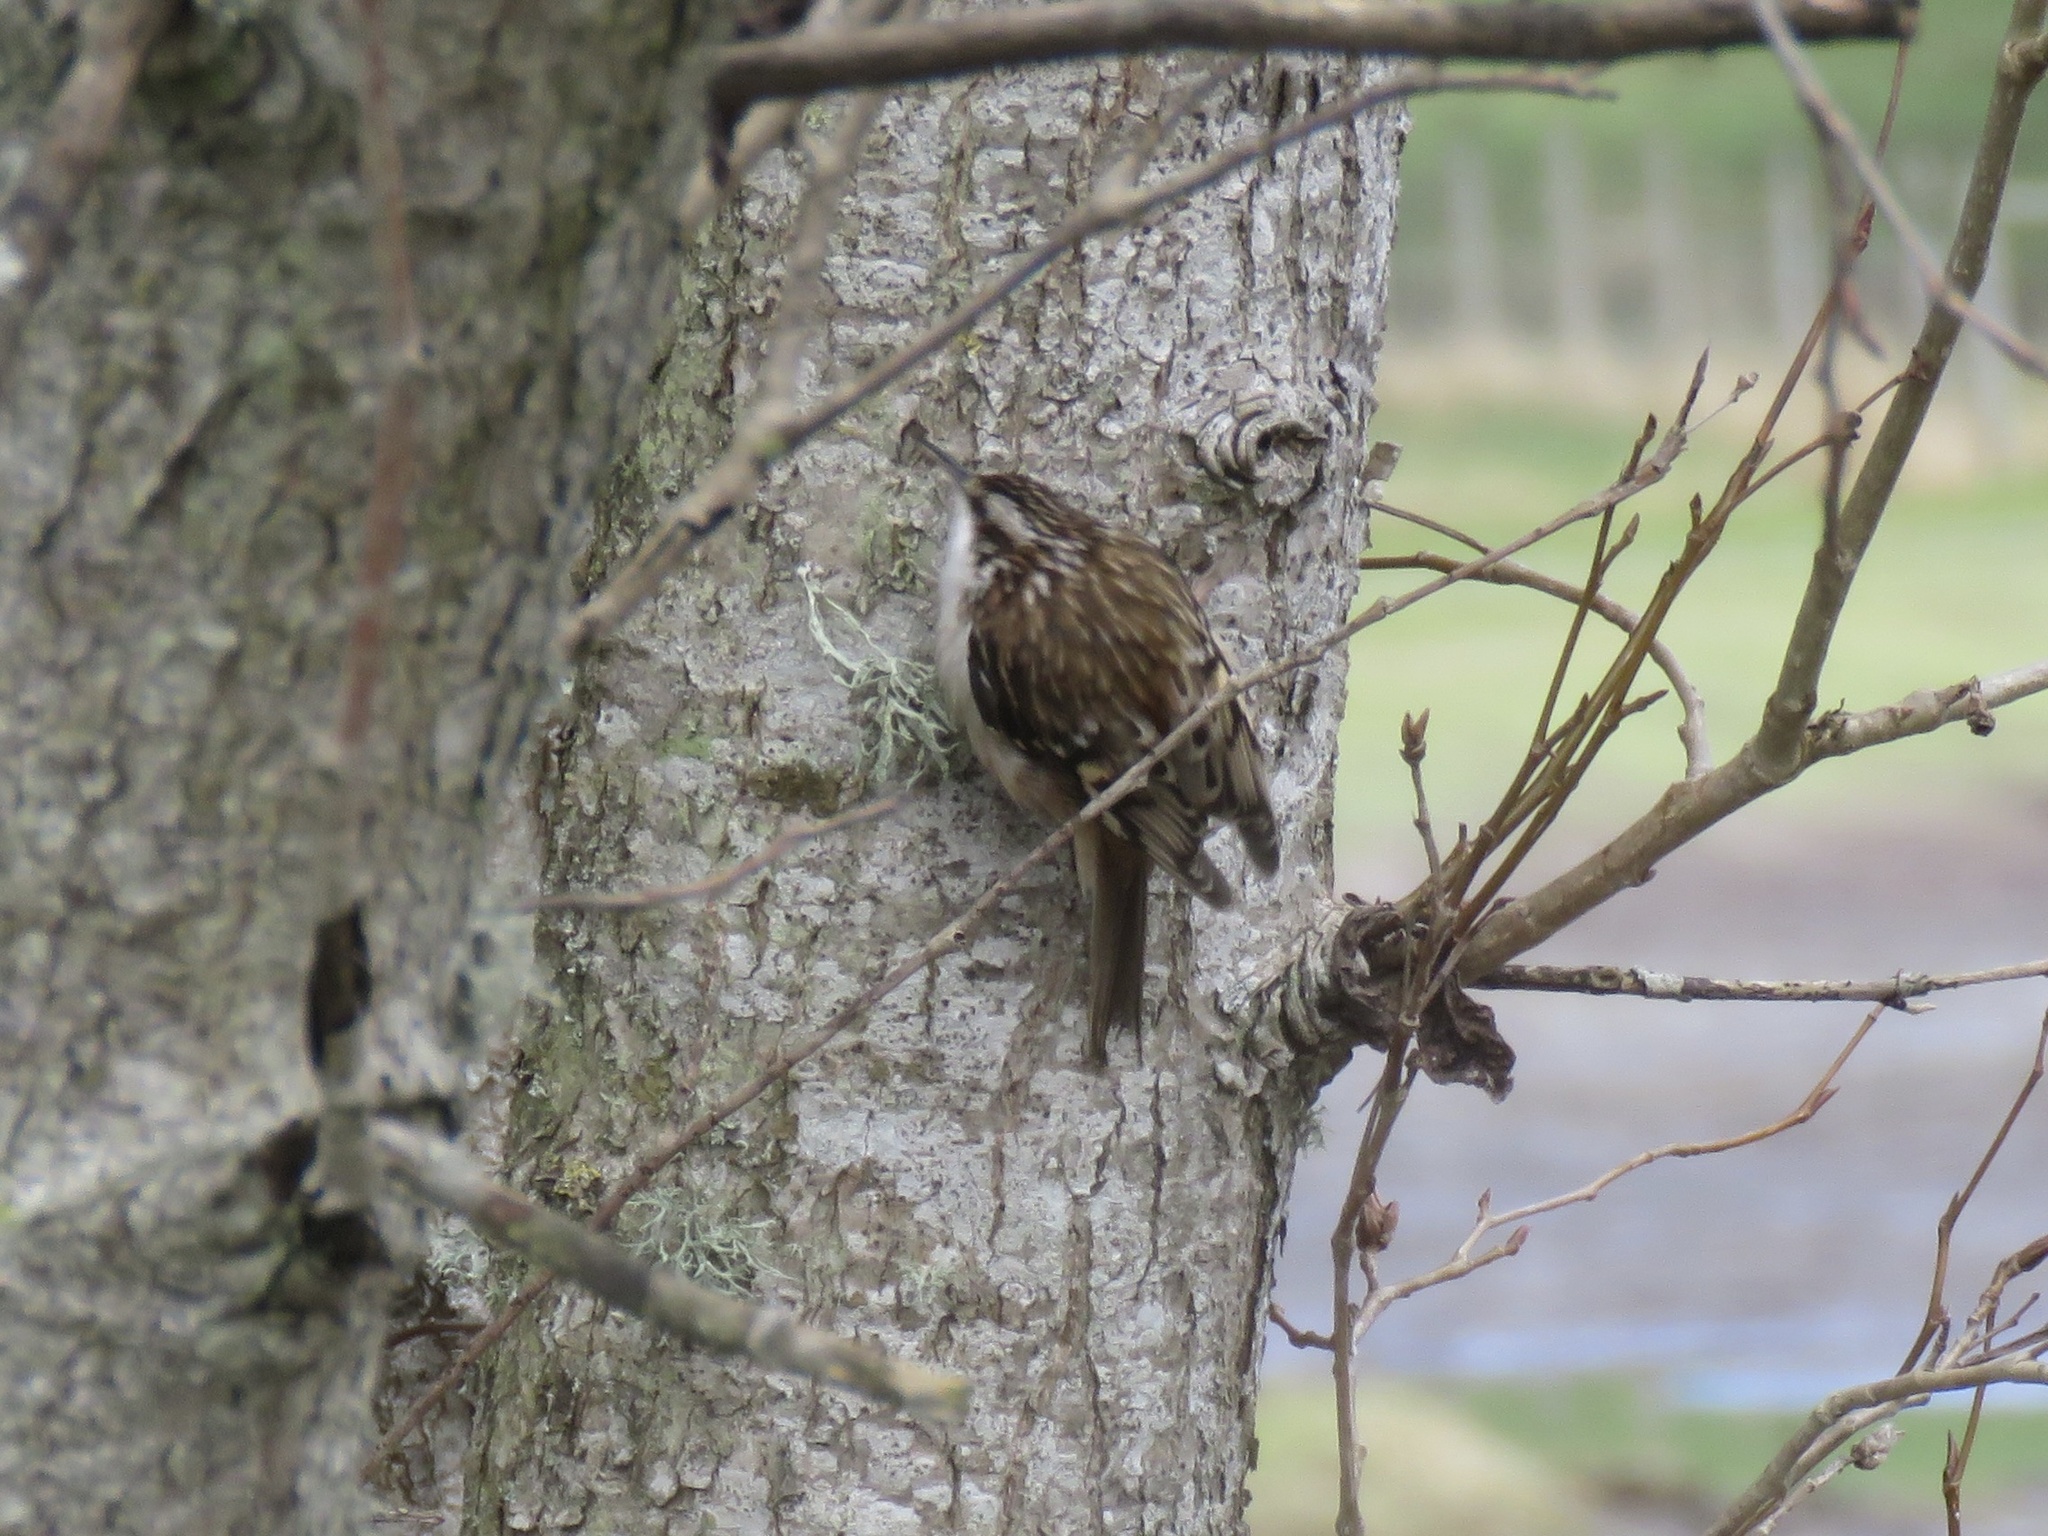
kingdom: Animalia
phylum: Chordata
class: Aves
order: Passeriformes
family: Certhiidae
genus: Certhia
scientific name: Certhia americana
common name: Brown creeper
